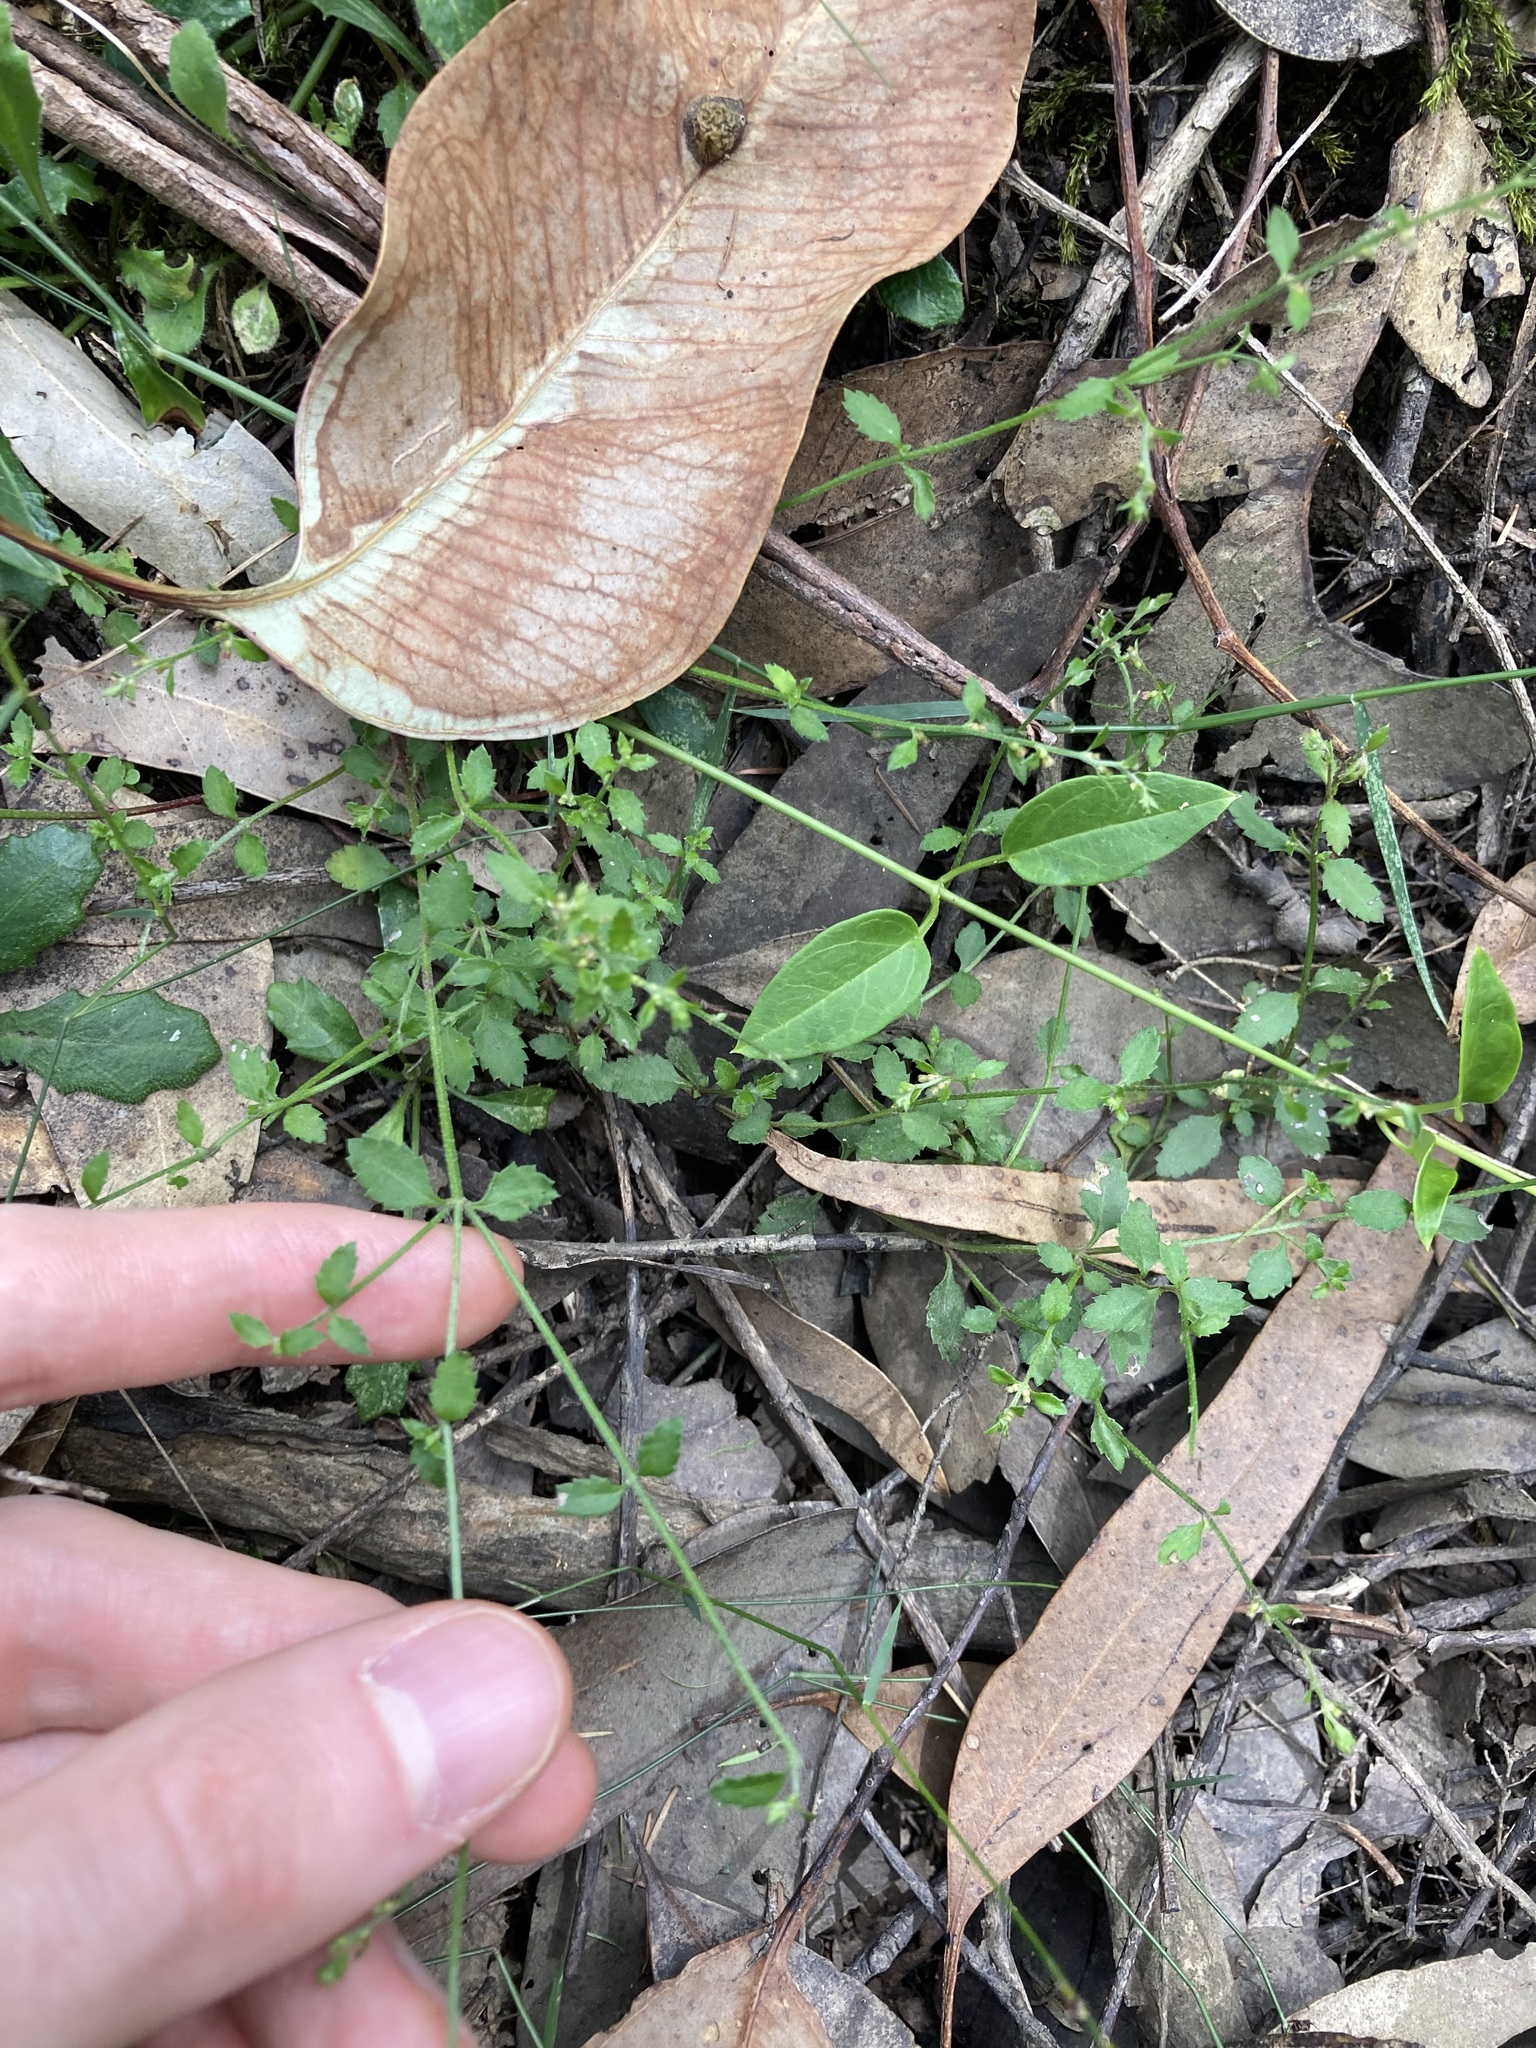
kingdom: Plantae
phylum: Tracheophyta
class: Magnoliopsida
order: Saxifragales
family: Haloragaceae
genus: Gonocarpus
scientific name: Gonocarpus humilis
